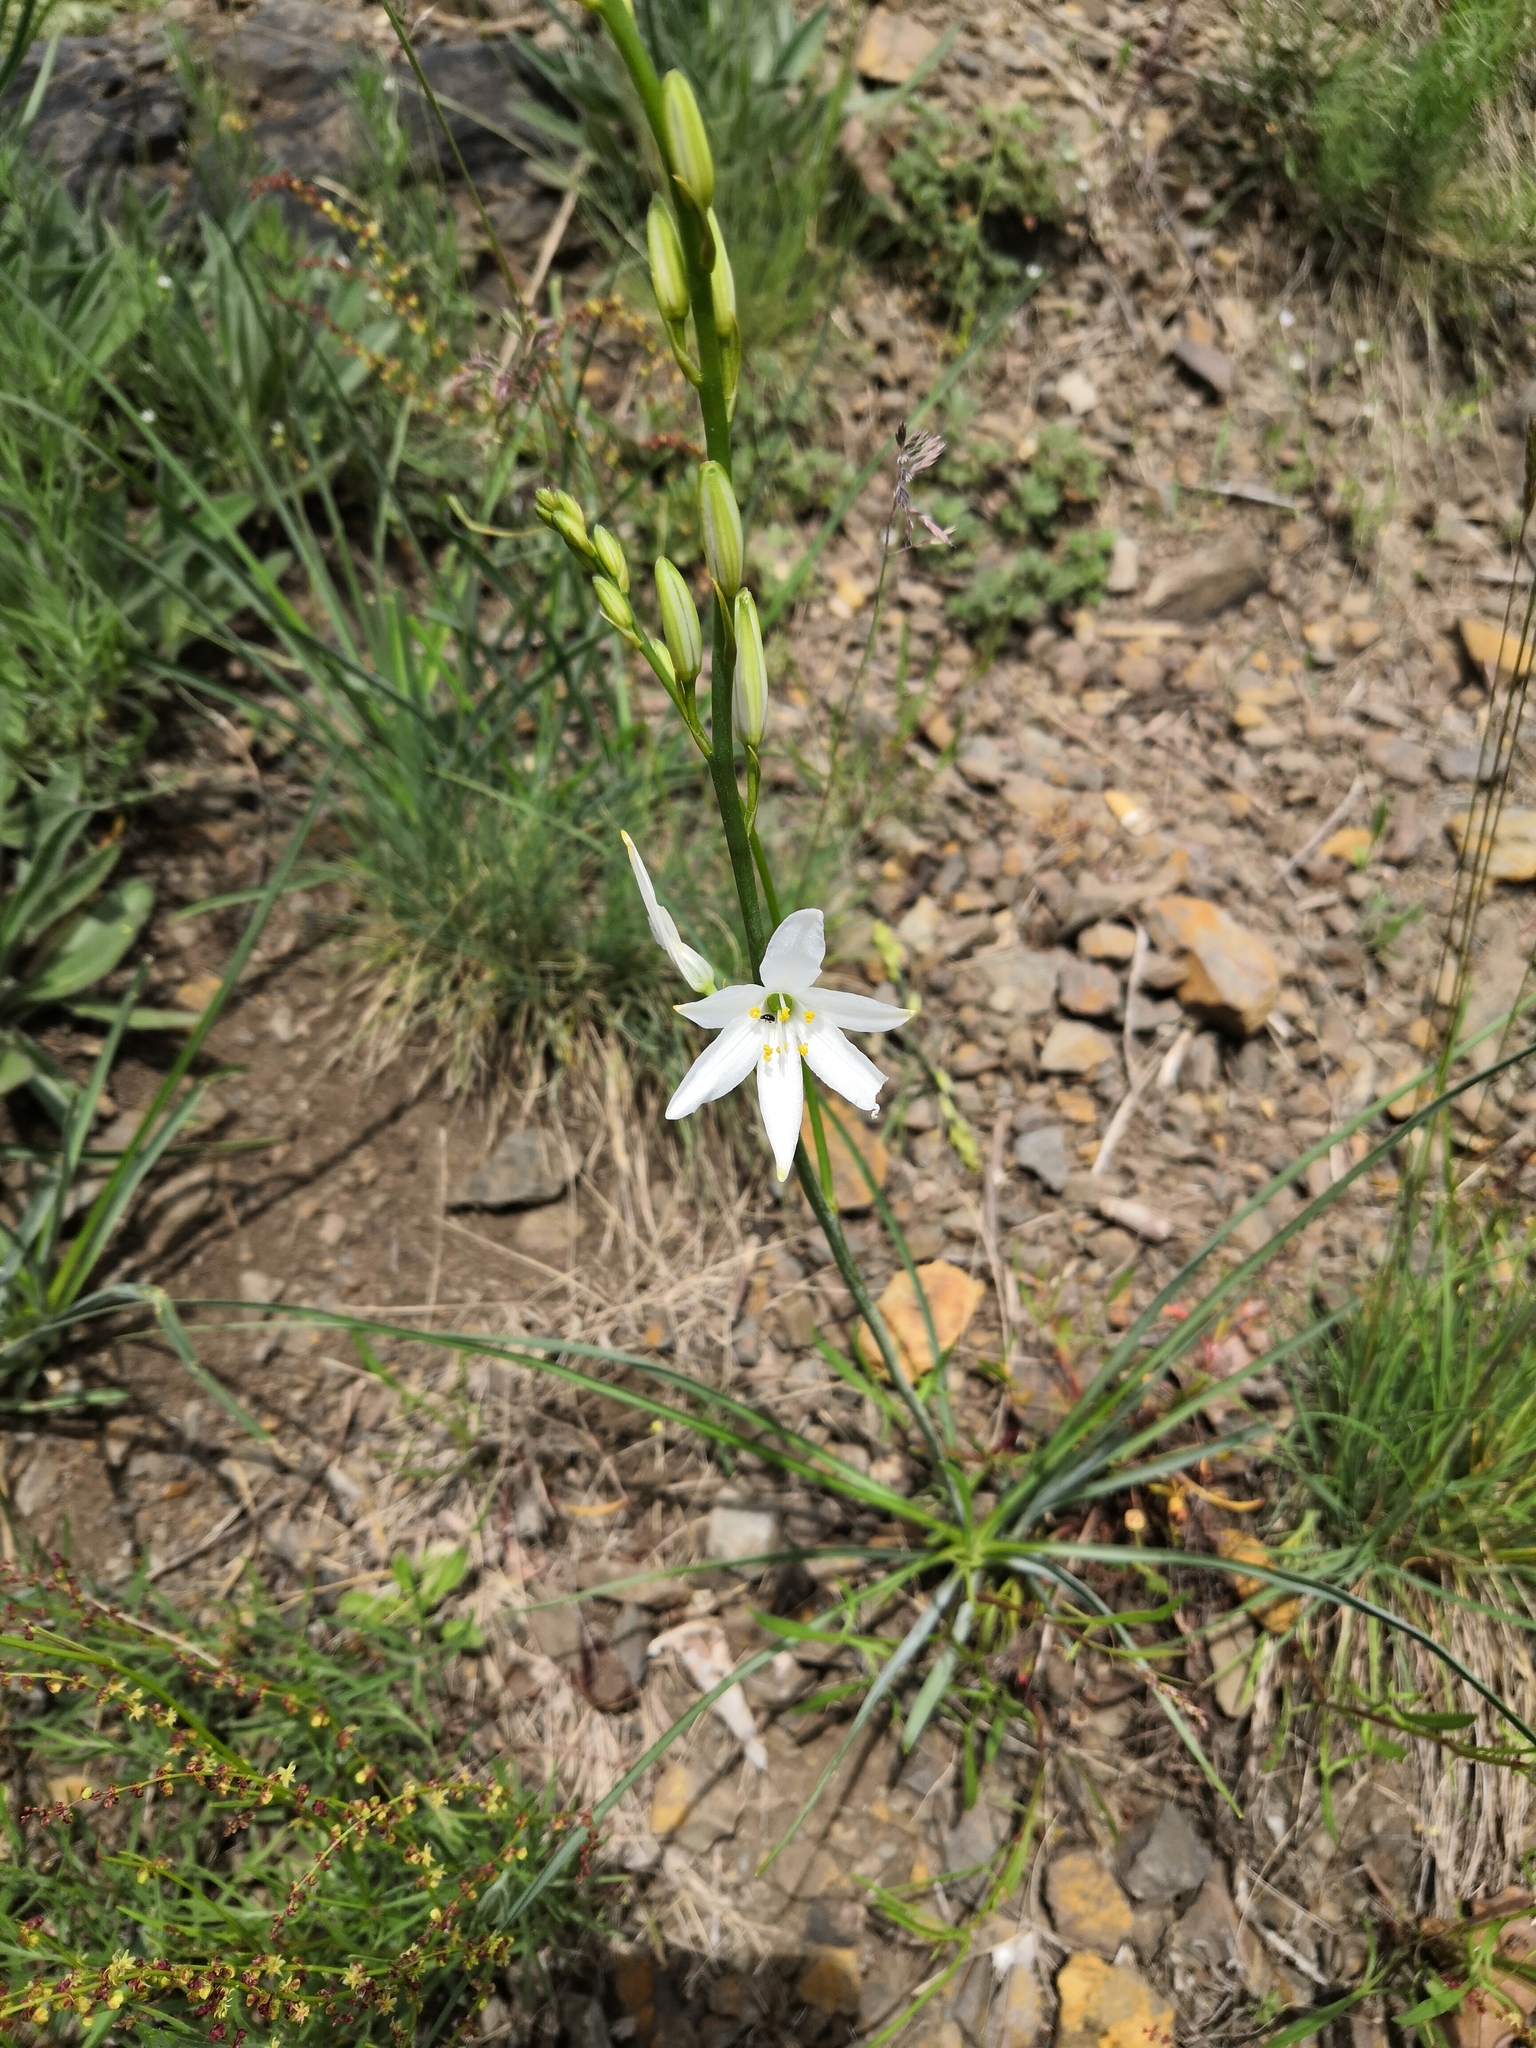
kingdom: Plantae
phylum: Tracheophyta
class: Liliopsida
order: Asparagales
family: Asparagaceae
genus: Anthericum
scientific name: Anthericum liliago
